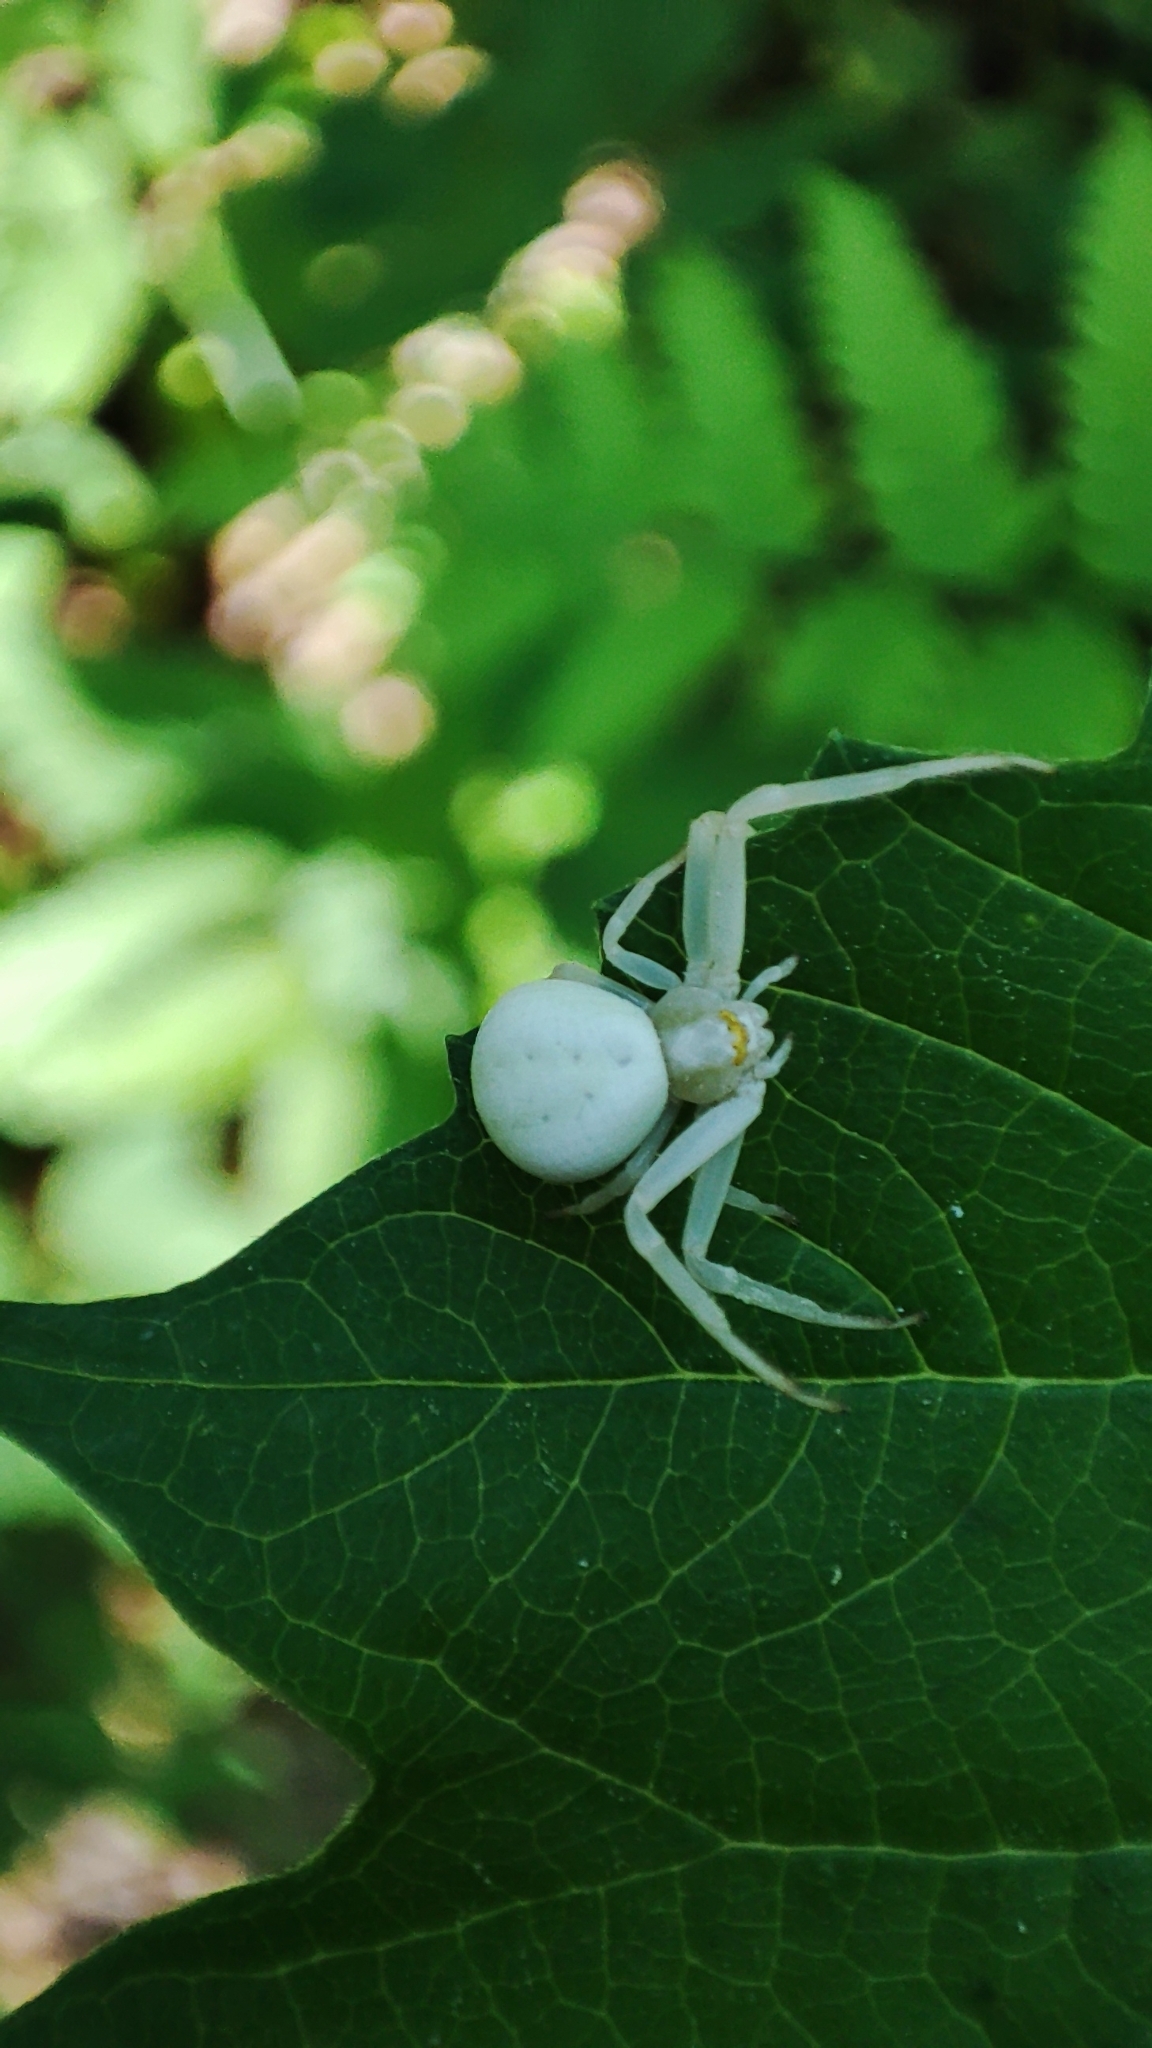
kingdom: Animalia
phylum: Arthropoda
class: Arachnida
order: Araneae
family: Thomisidae
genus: Misumena
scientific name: Misumena vatia
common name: Goldenrod crab spider
